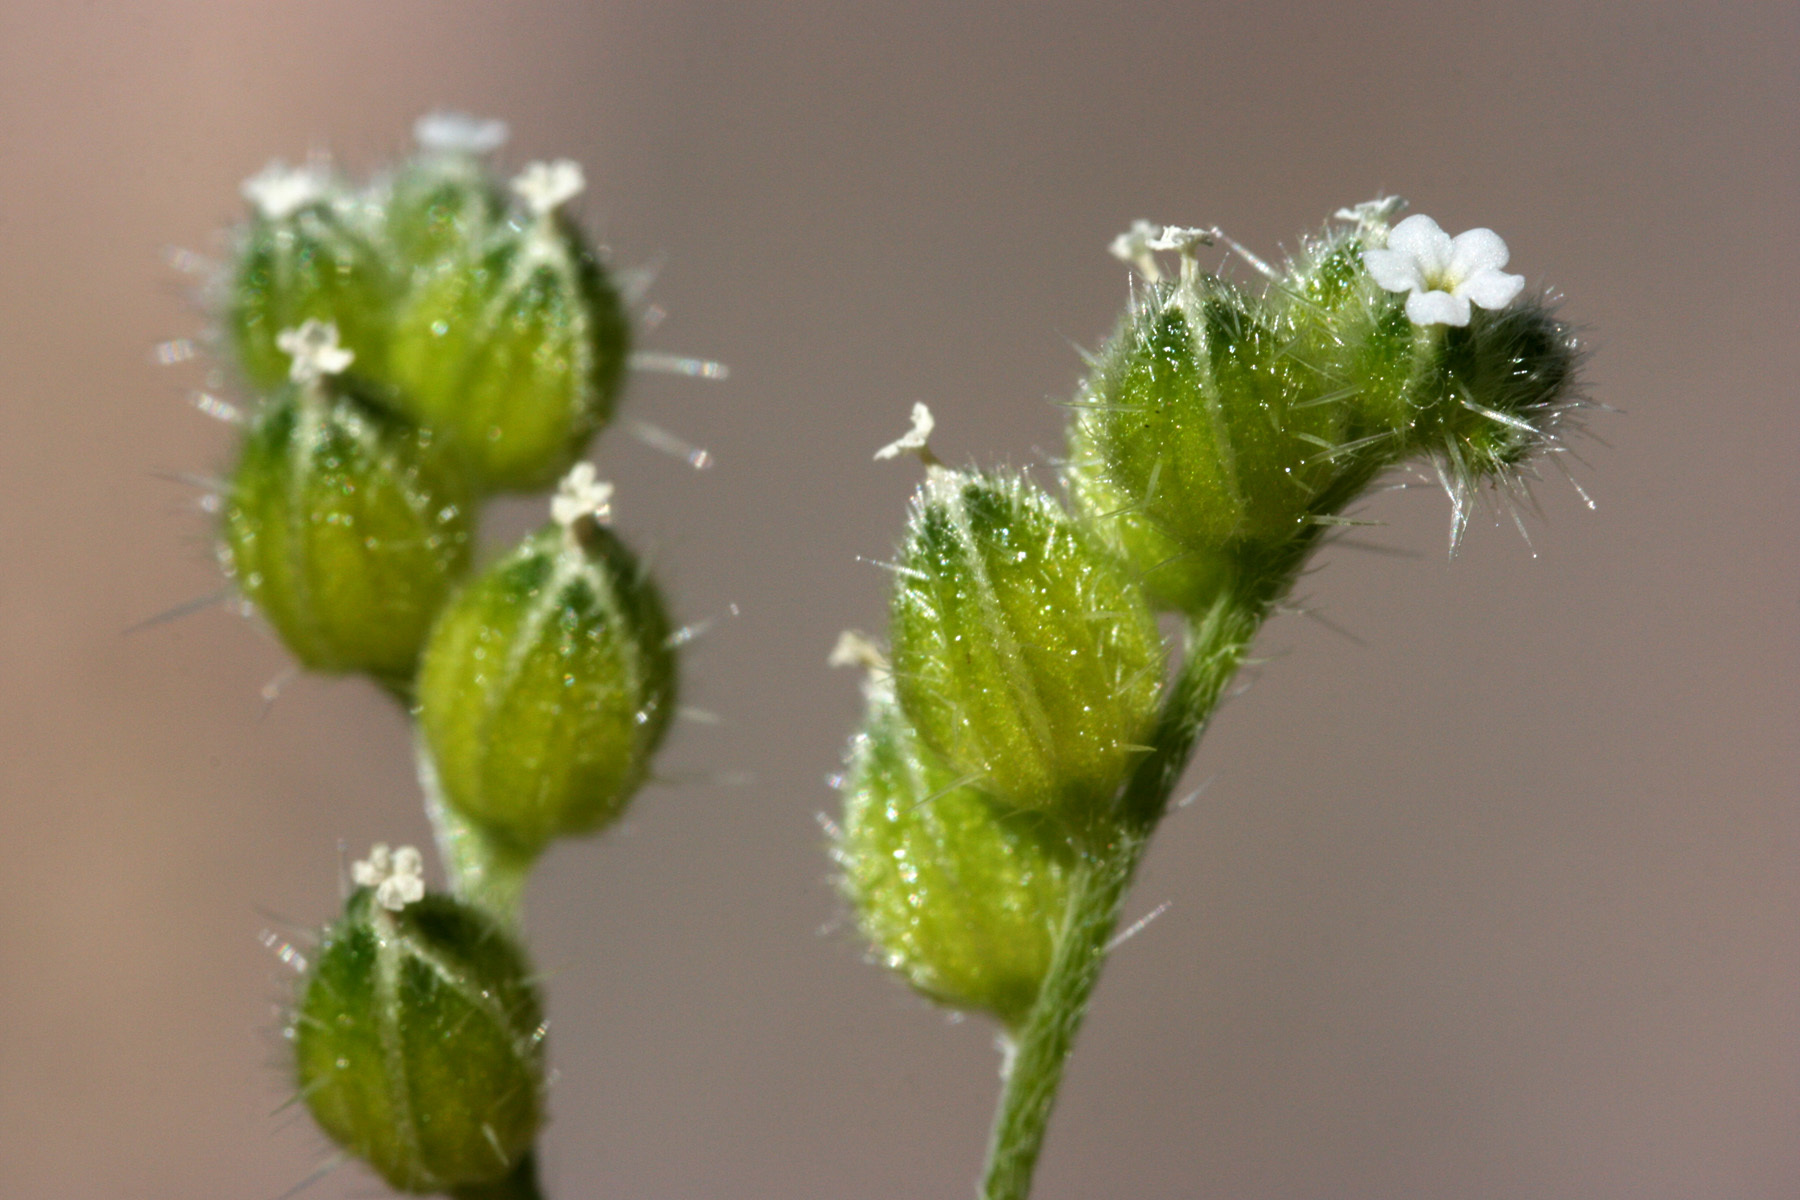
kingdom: Plantae
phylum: Tracheophyta
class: Magnoliopsida
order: Boraginales
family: Boraginaceae
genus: Cryptantha
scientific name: Cryptantha pterocarya
